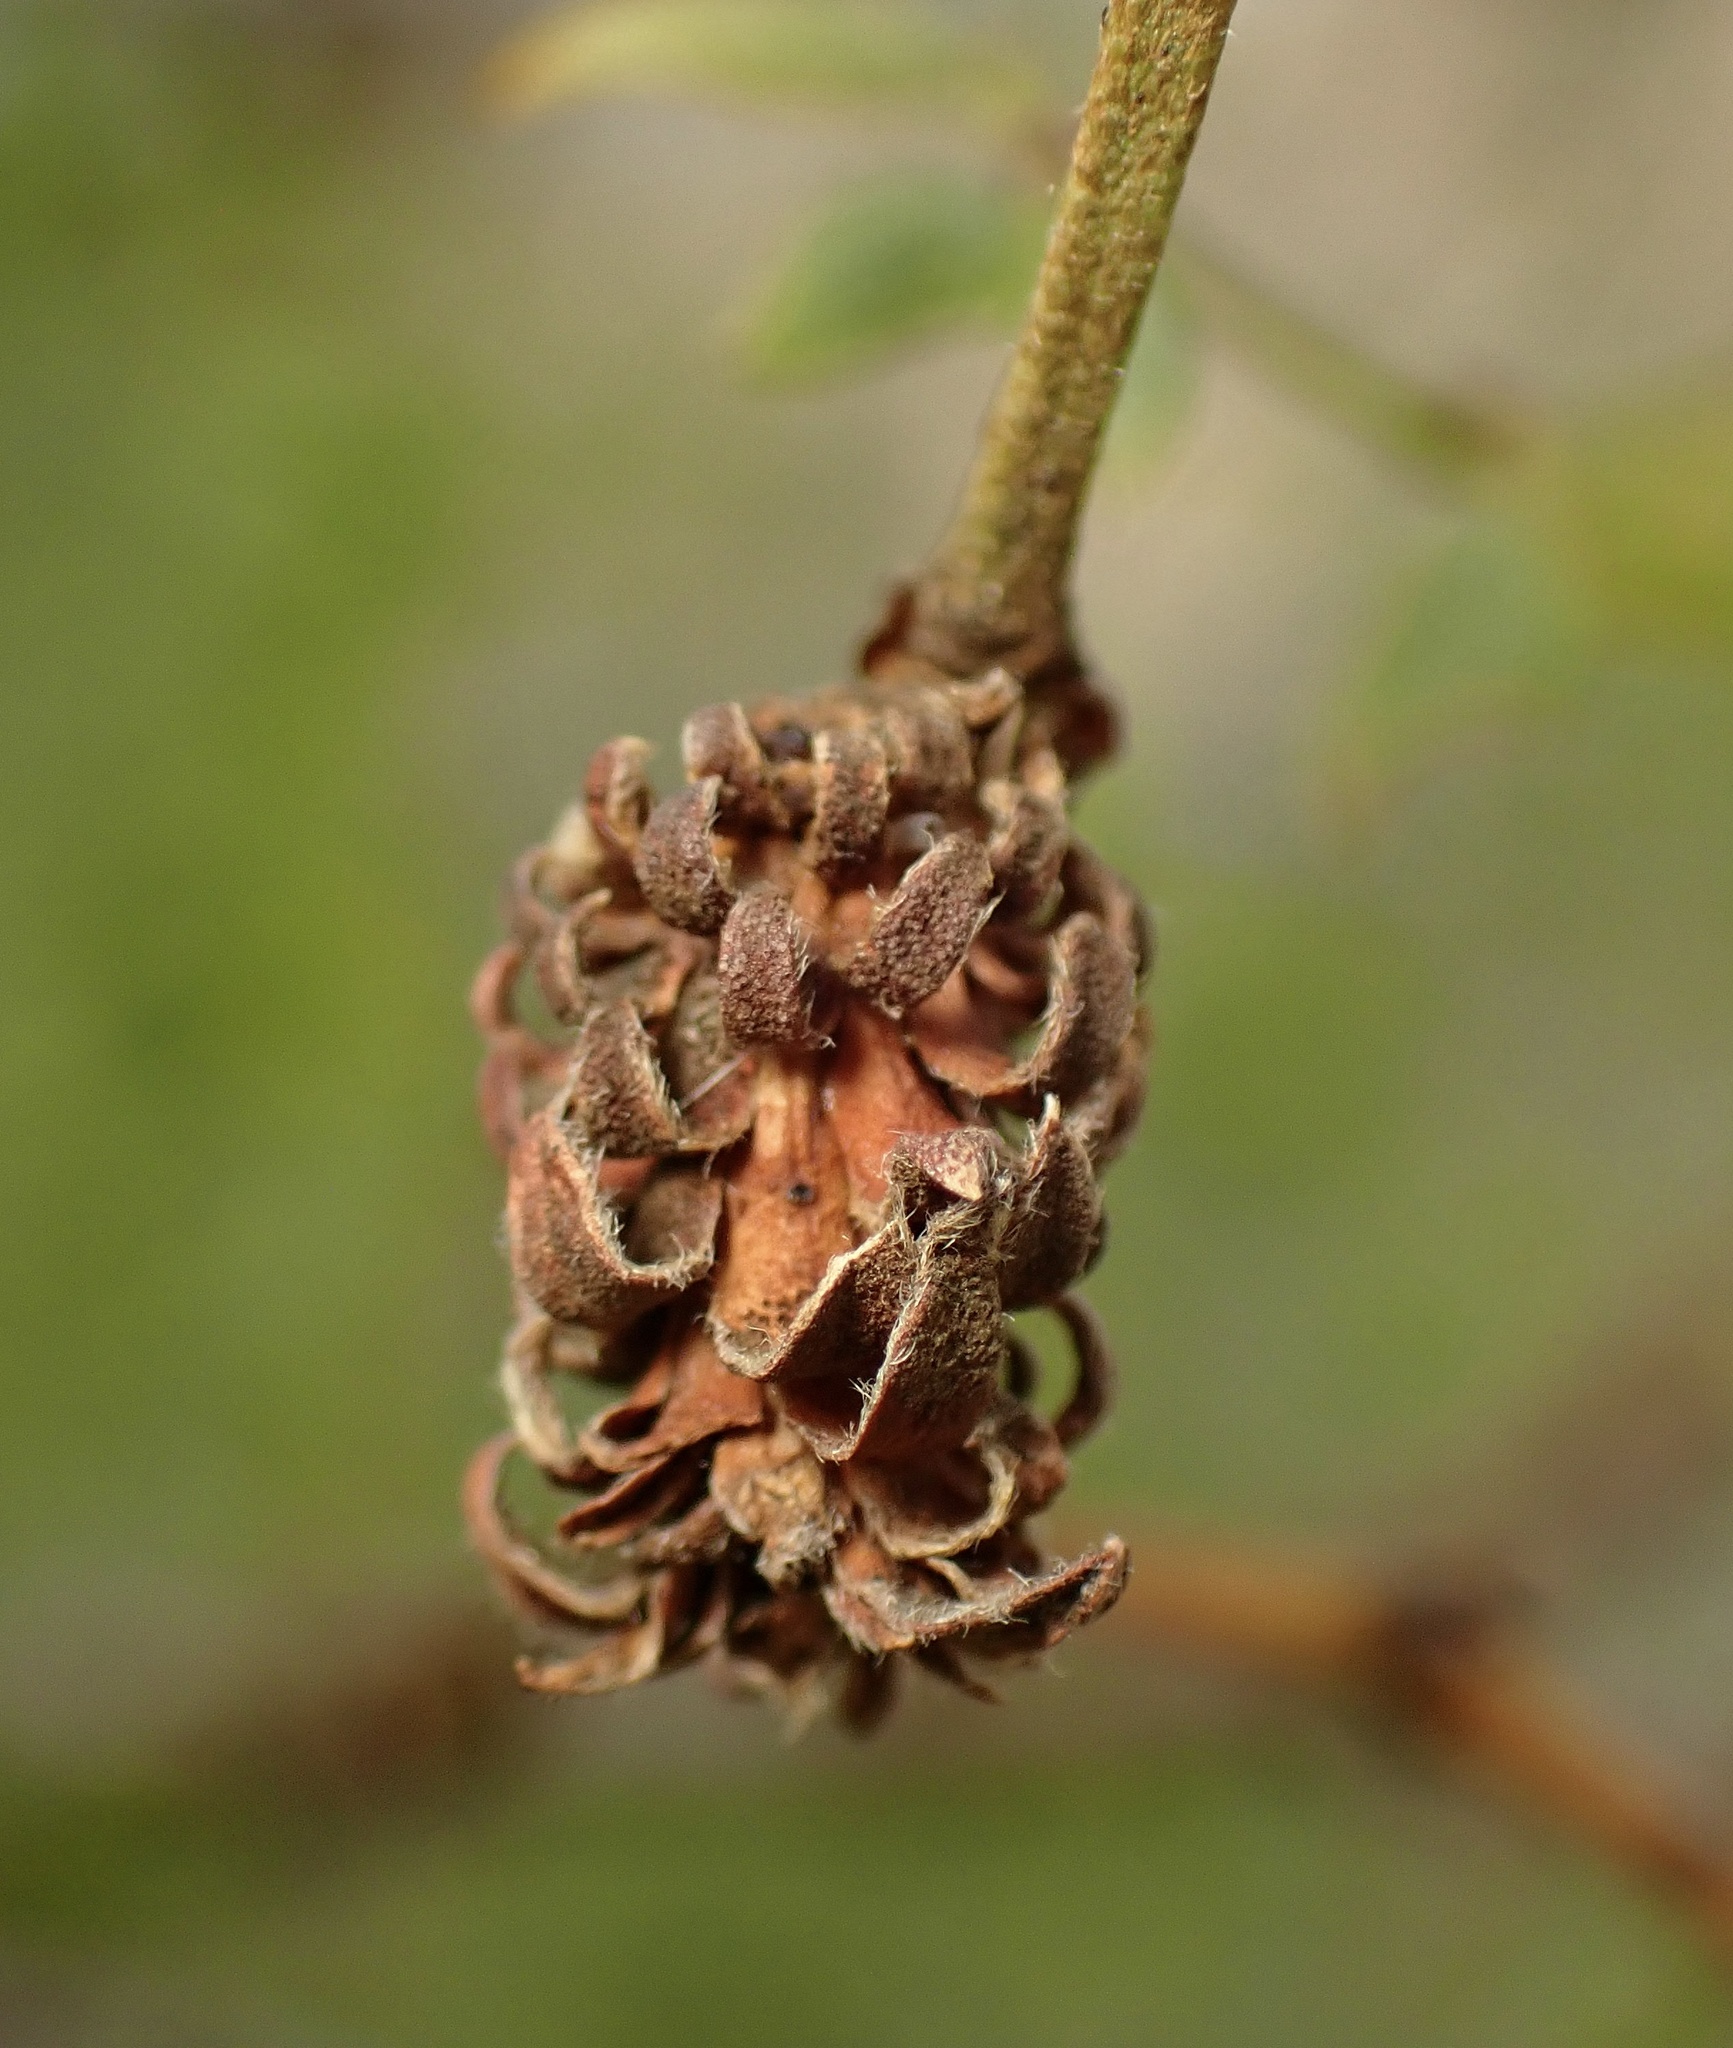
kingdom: Animalia
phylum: Arthropoda
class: Insecta
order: Diptera
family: Cecidomyiidae
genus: Asphondylia
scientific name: Asphondylia rosetta
